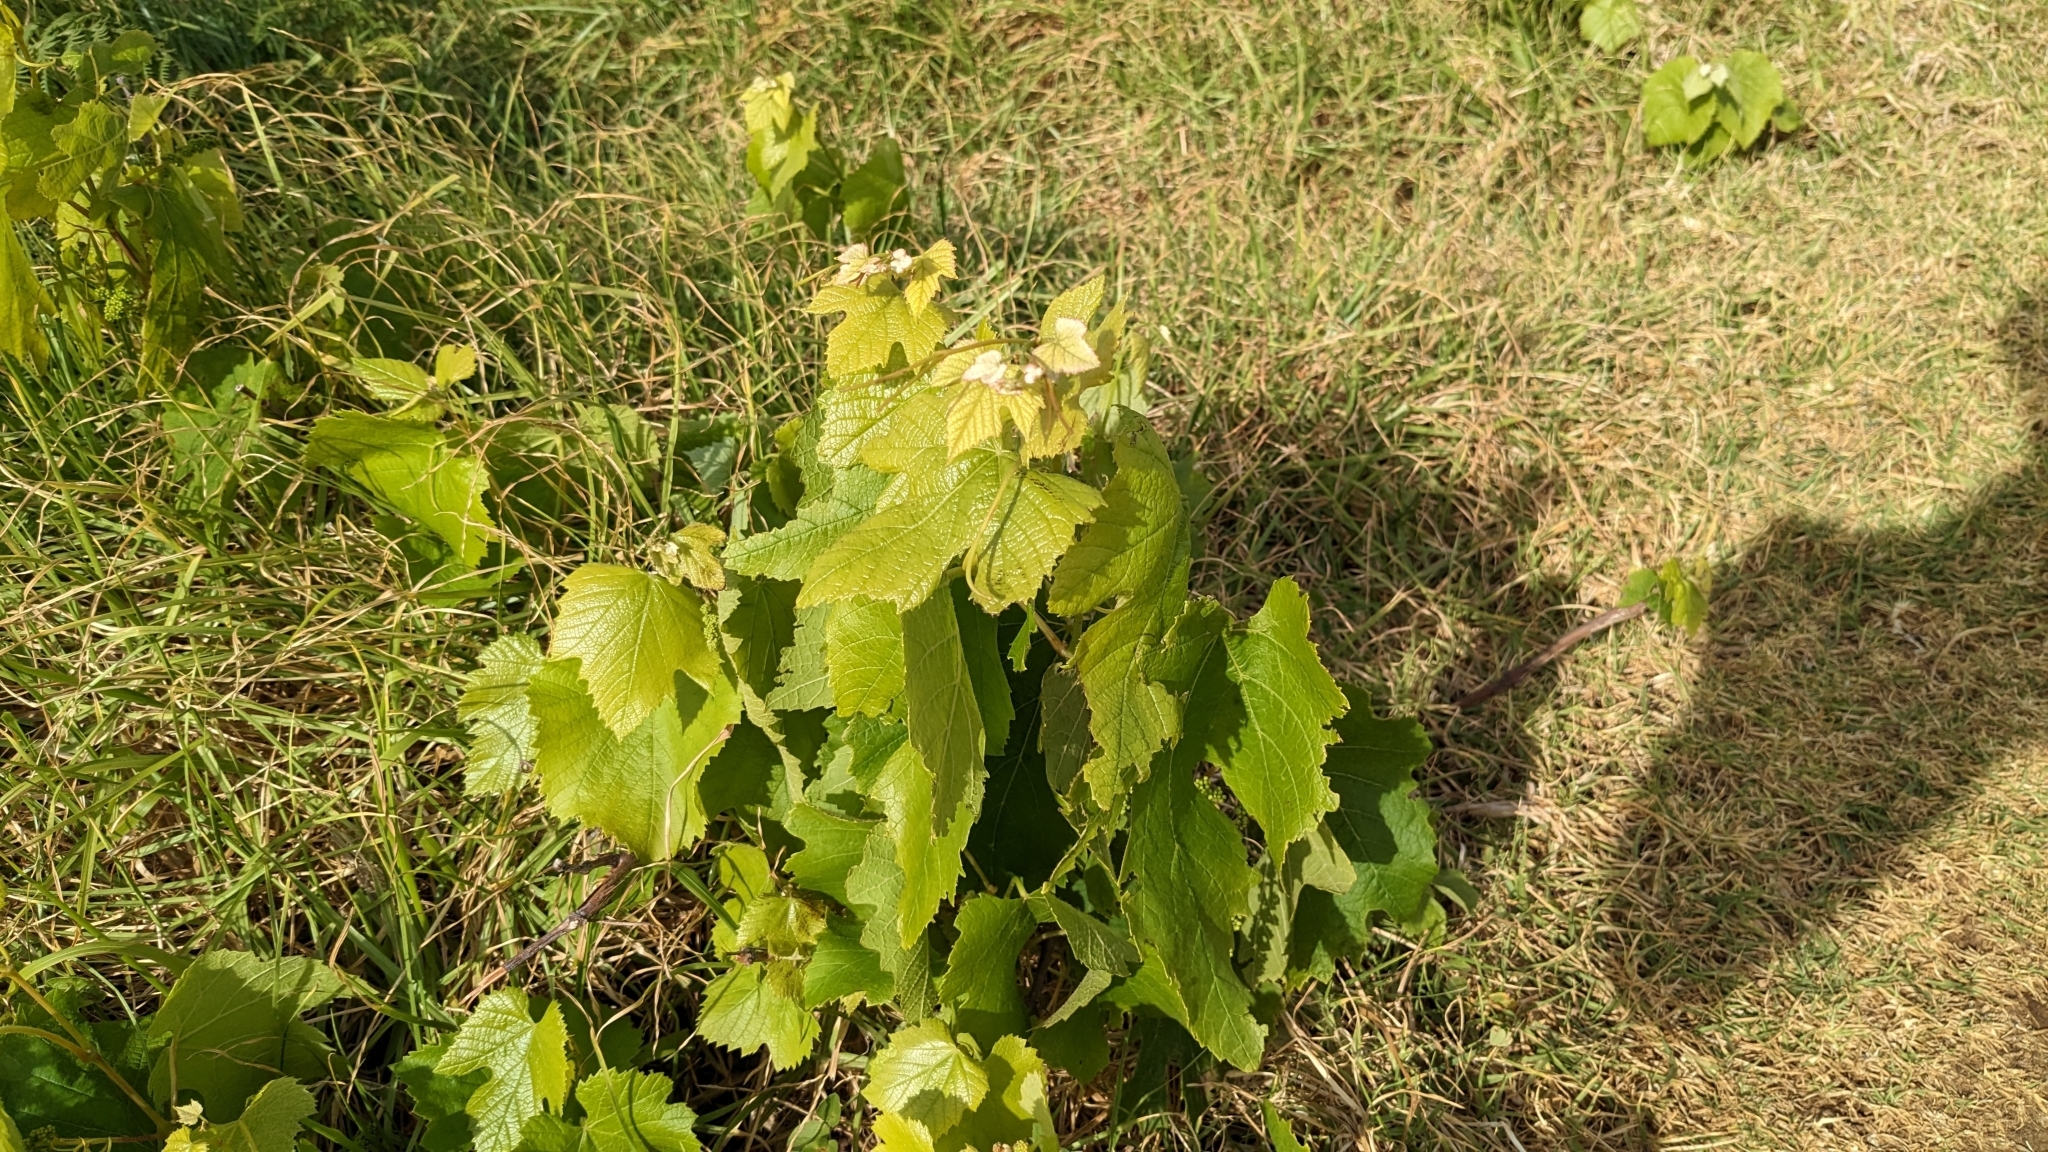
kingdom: Plantae
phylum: Tracheophyta
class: Magnoliopsida
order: Vitales
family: Vitaceae
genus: Vitis
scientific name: Vitis vinifera
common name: Grape-vine
